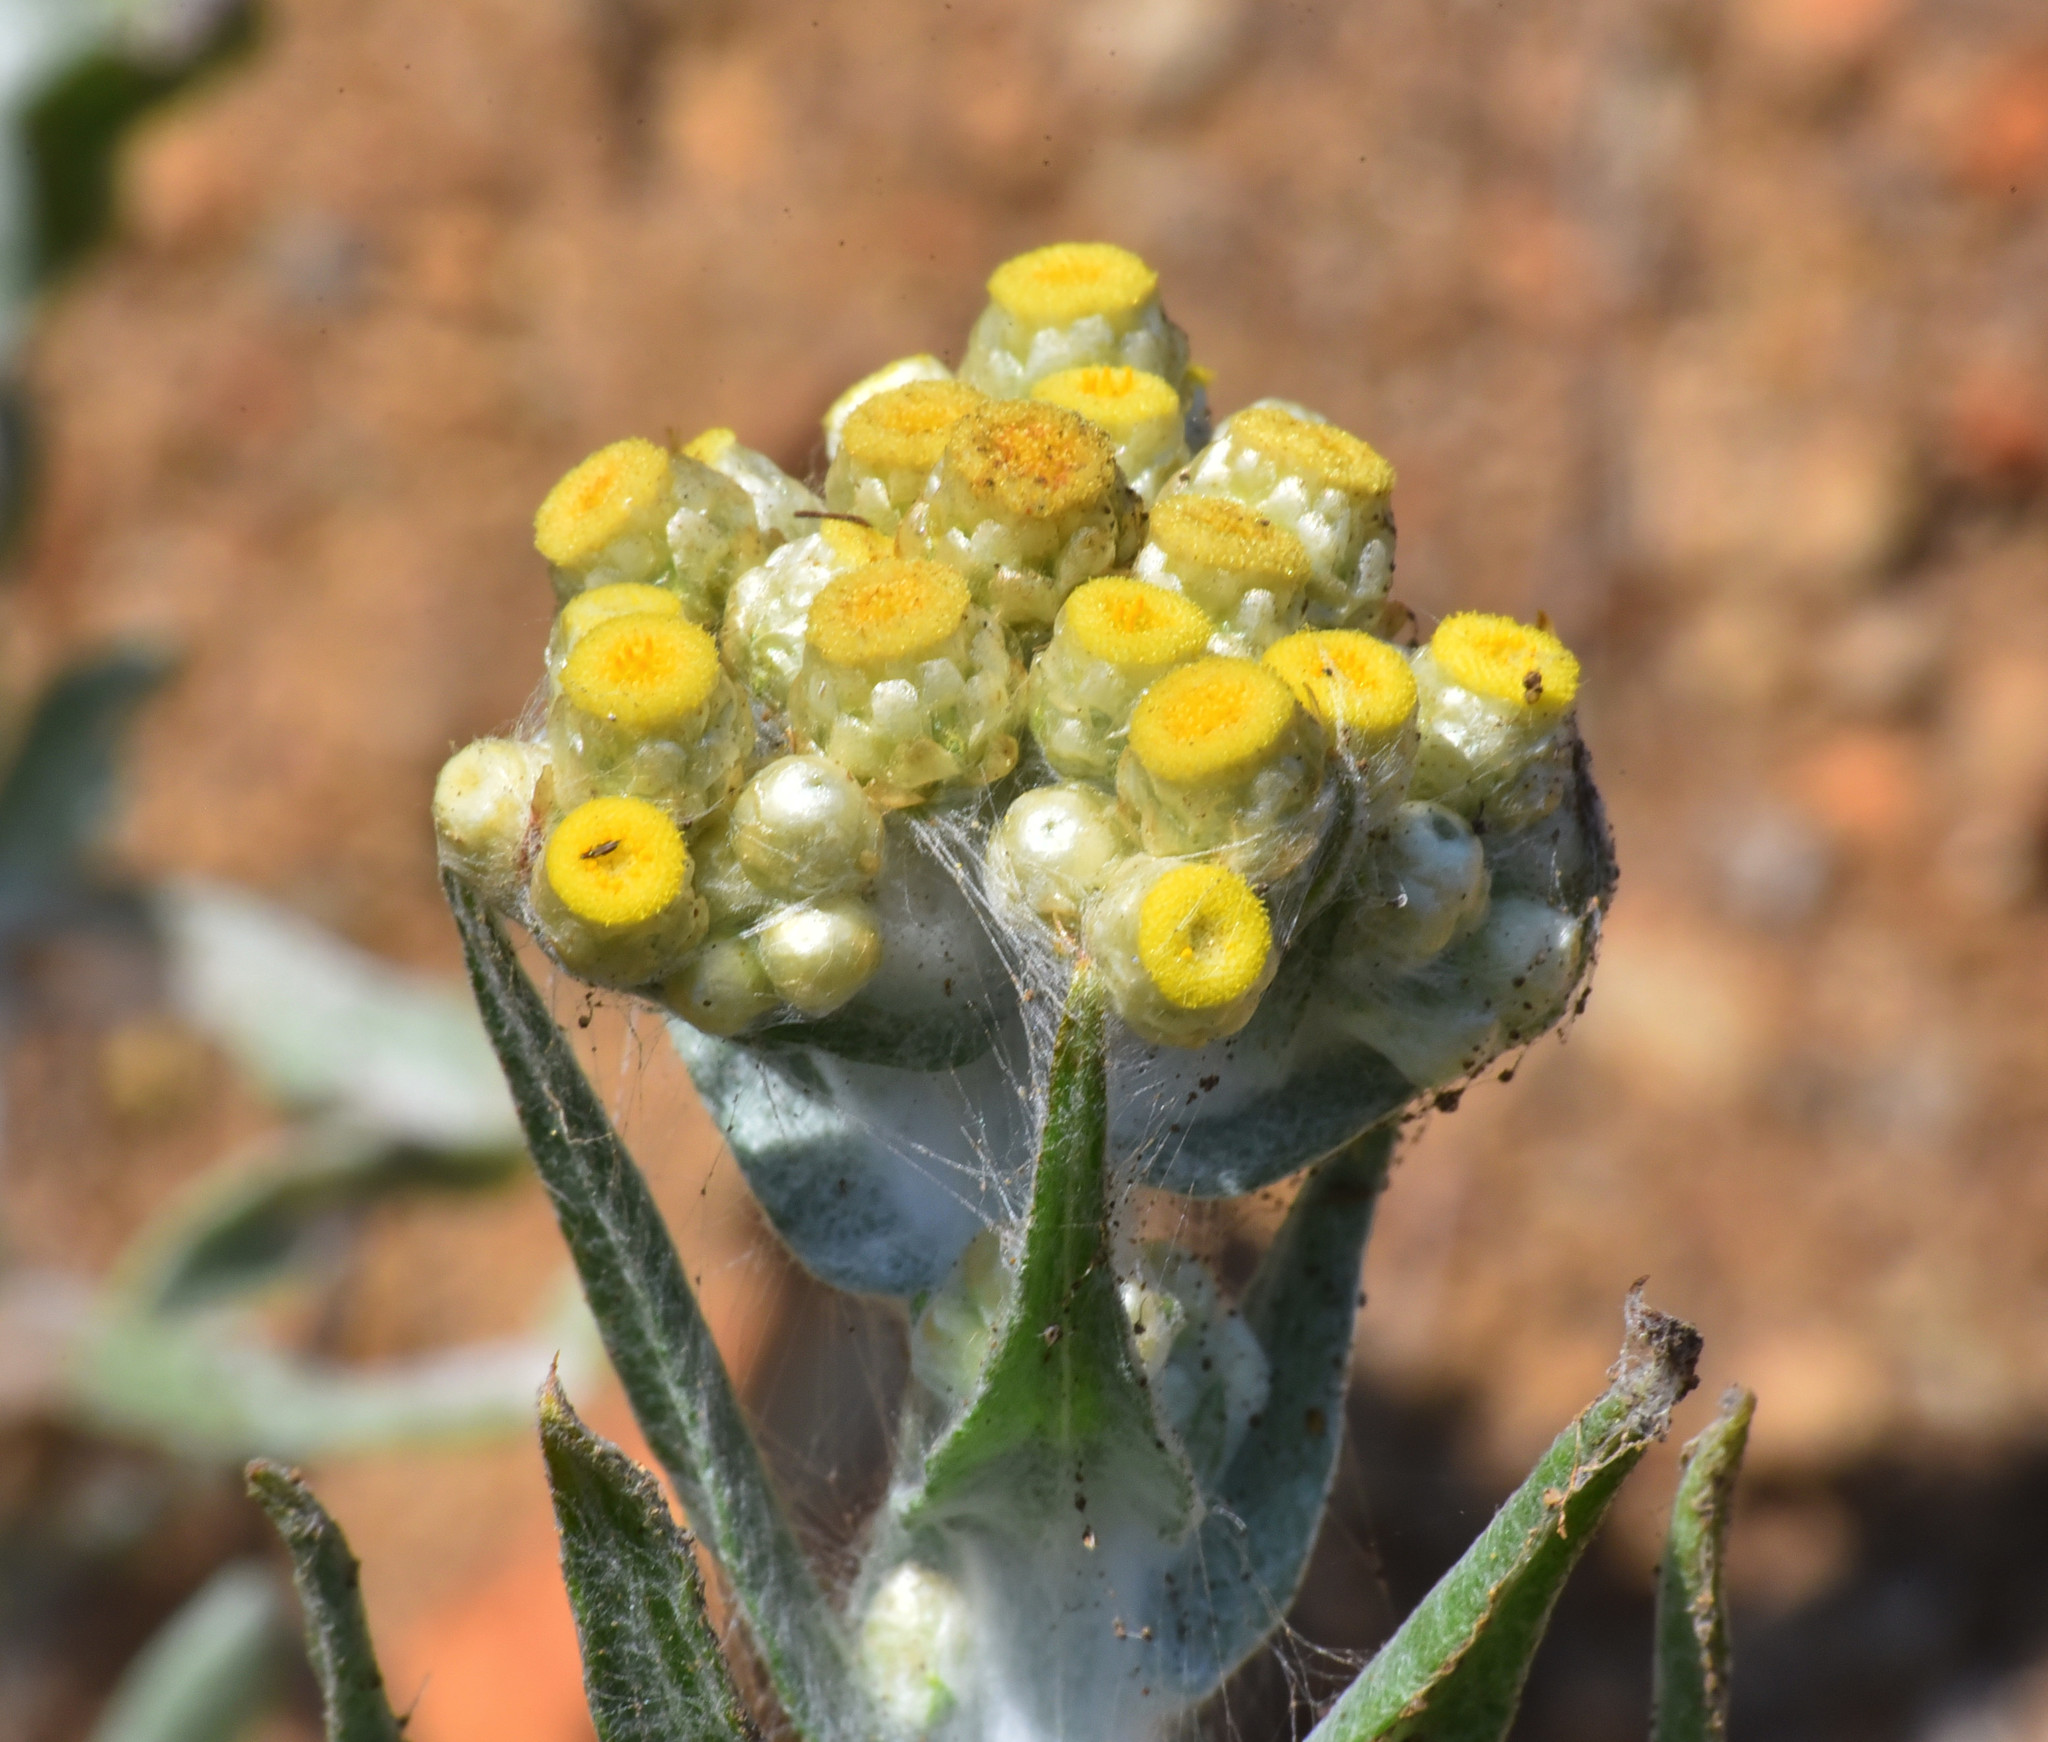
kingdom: Plantae
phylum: Tracheophyta
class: Magnoliopsida
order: Asterales
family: Asteraceae
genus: Pseudognaphalium
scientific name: Pseudognaphalium stramineum
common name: Cotton-batting-plant
